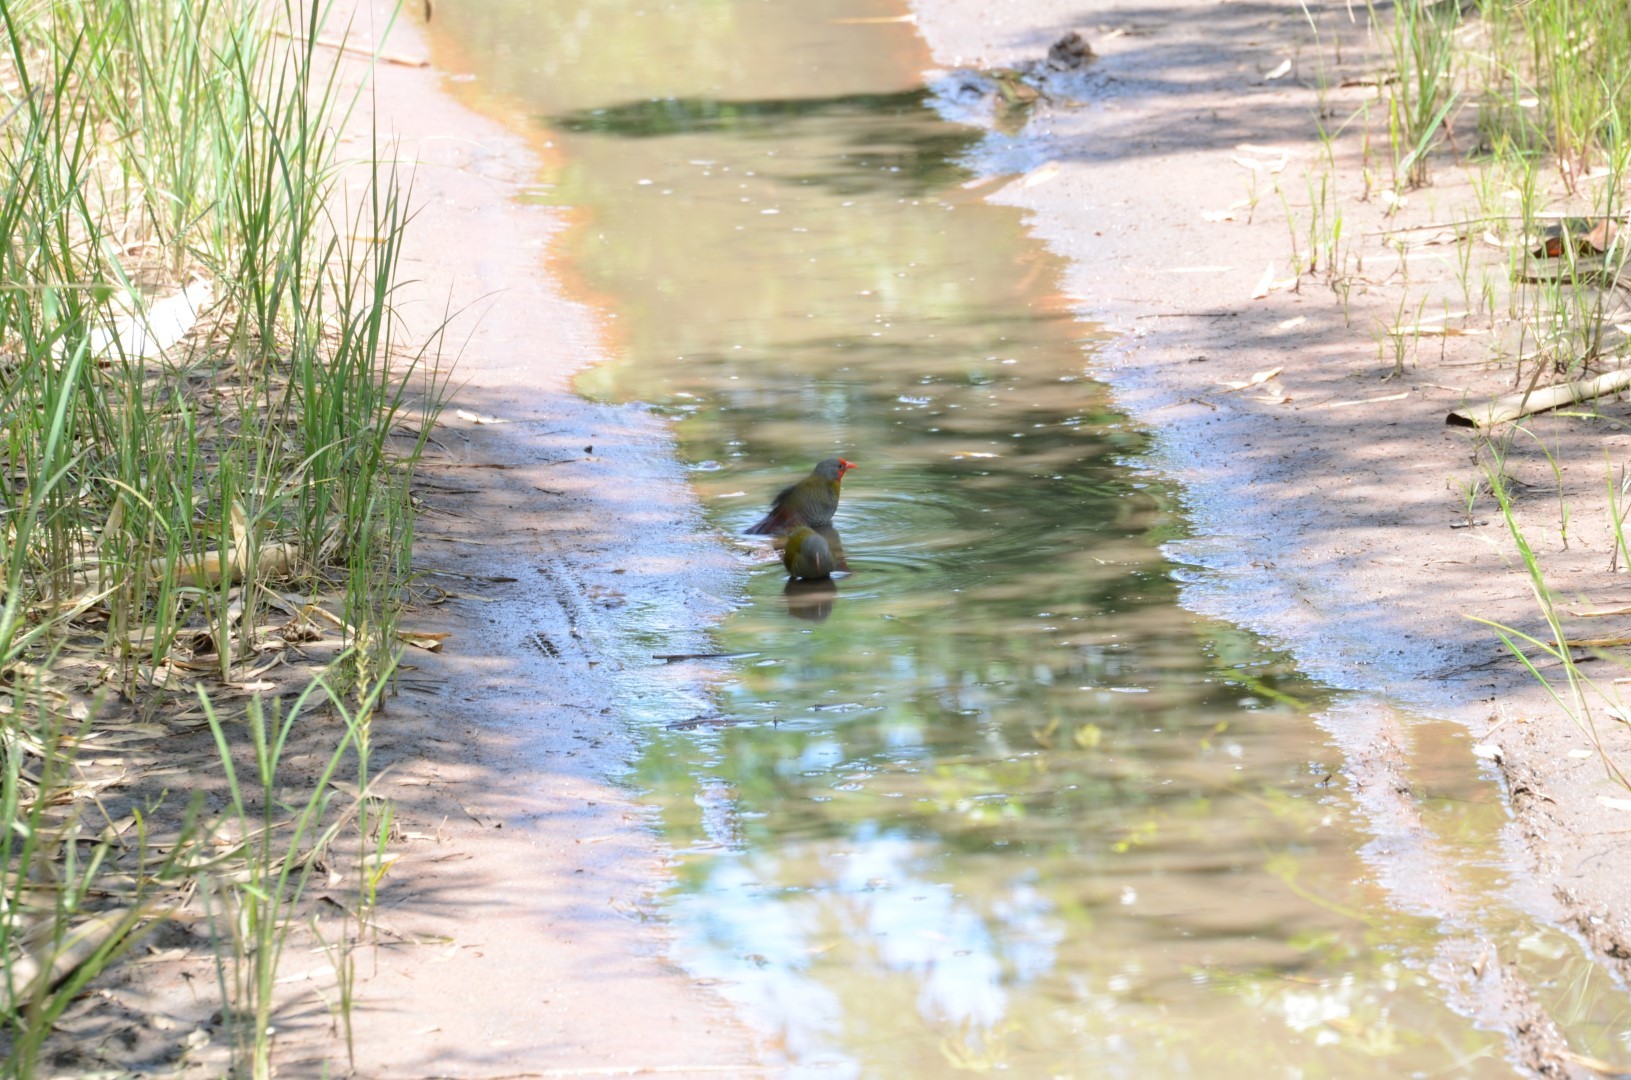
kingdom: Animalia
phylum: Chordata
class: Aves
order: Passeriformes
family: Estrildidae
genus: Pytilia
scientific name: Pytilia melba
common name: Green-winged pytilia
